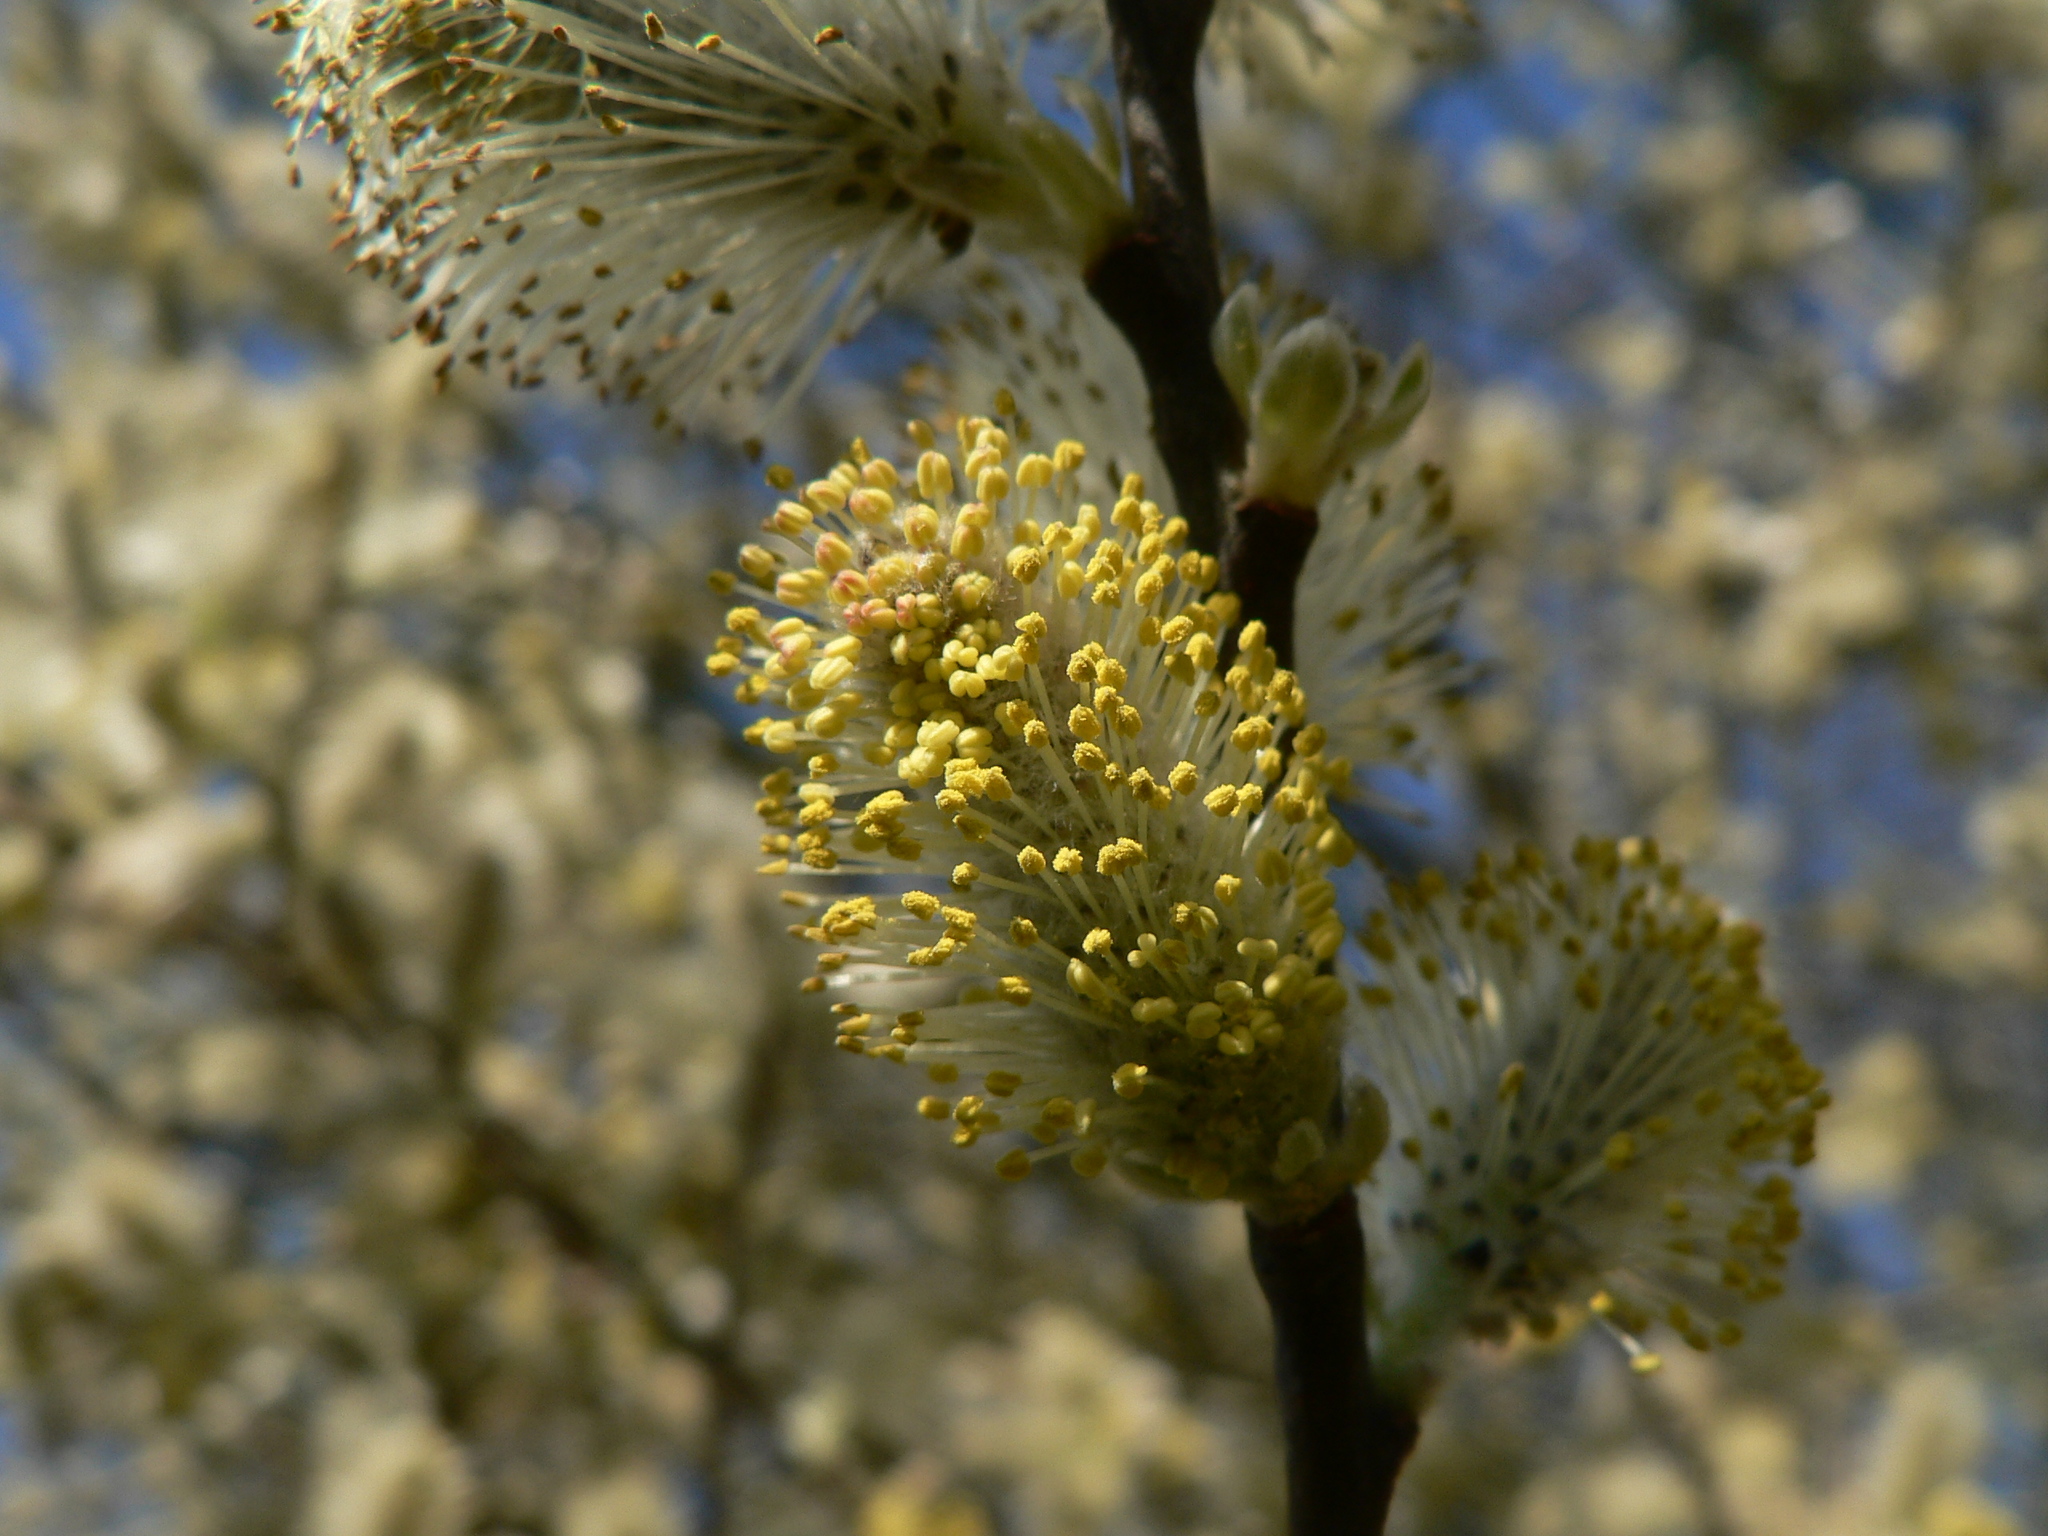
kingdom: Plantae
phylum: Tracheophyta
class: Magnoliopsida
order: Malpighiales
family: Salicaceae
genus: Salix
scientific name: Salix caprea
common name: Goat willow
